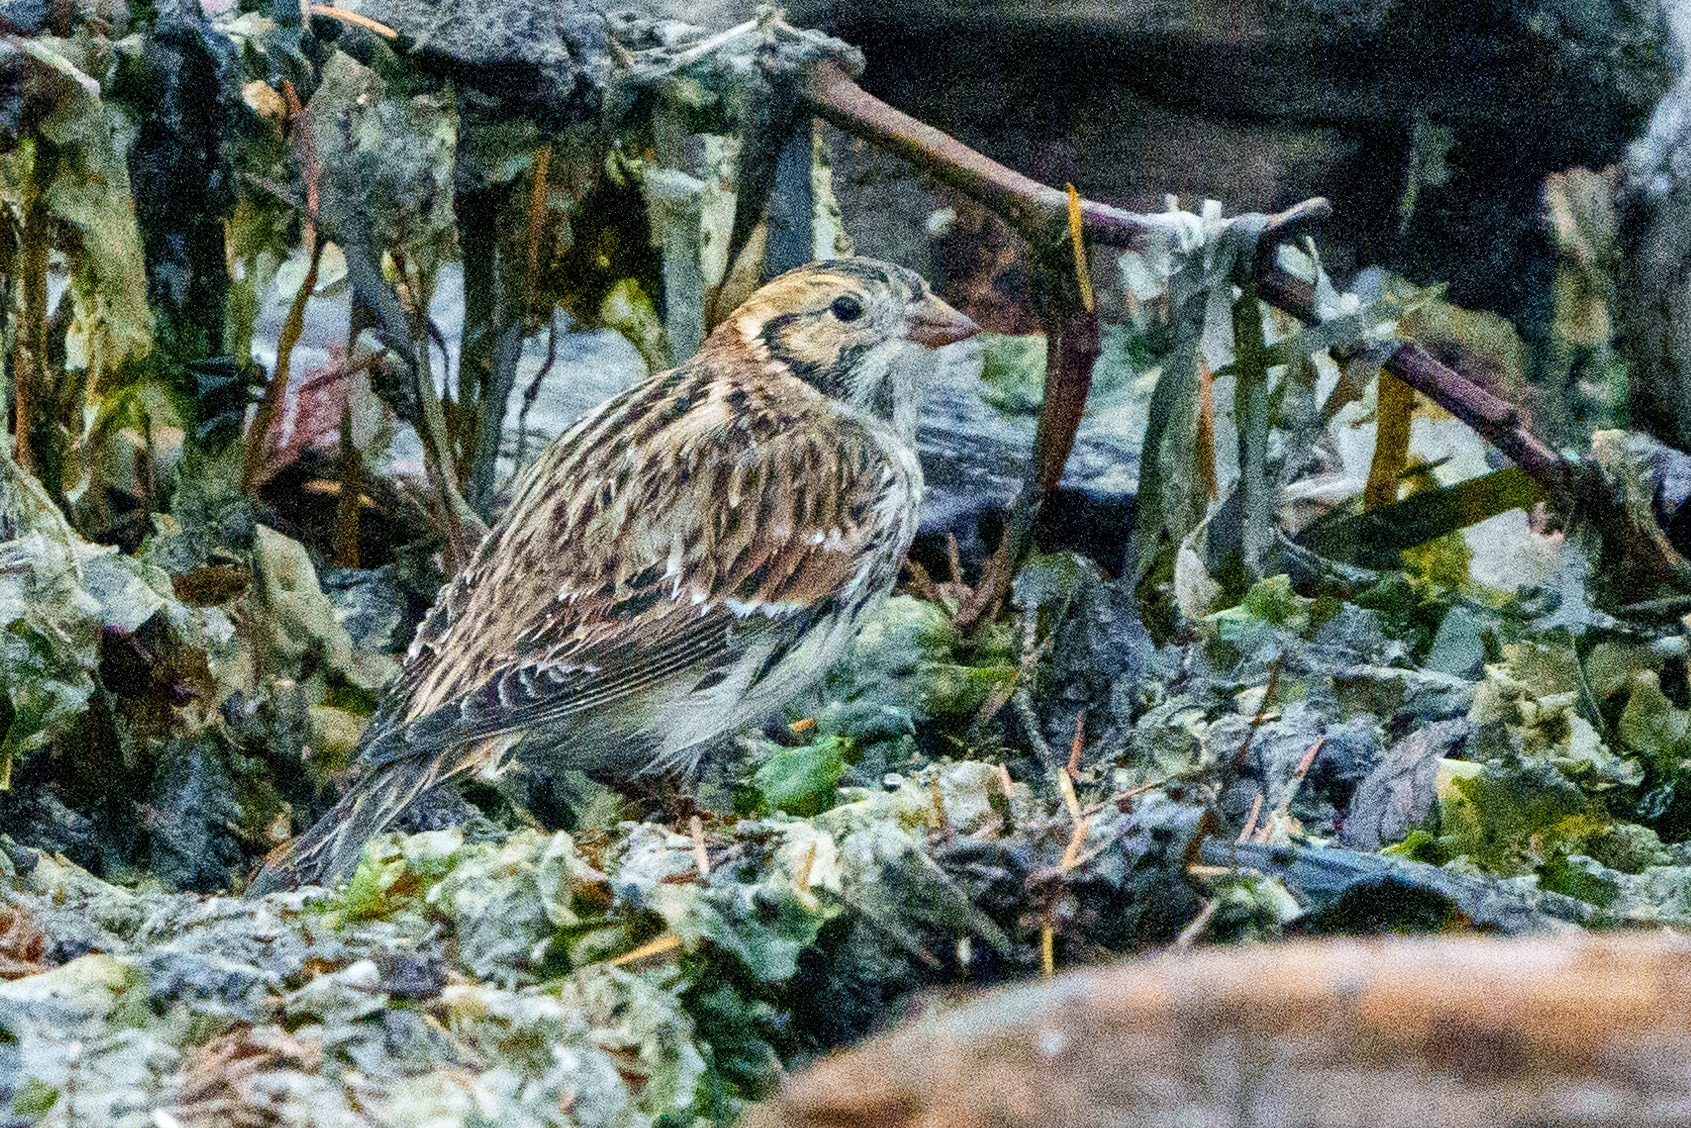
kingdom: Animalia
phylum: Chordata
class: Aves
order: Passeriformes
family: Calcariidae
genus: Calcarius
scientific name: Calcarius lapponicus
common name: Lapland longspur
